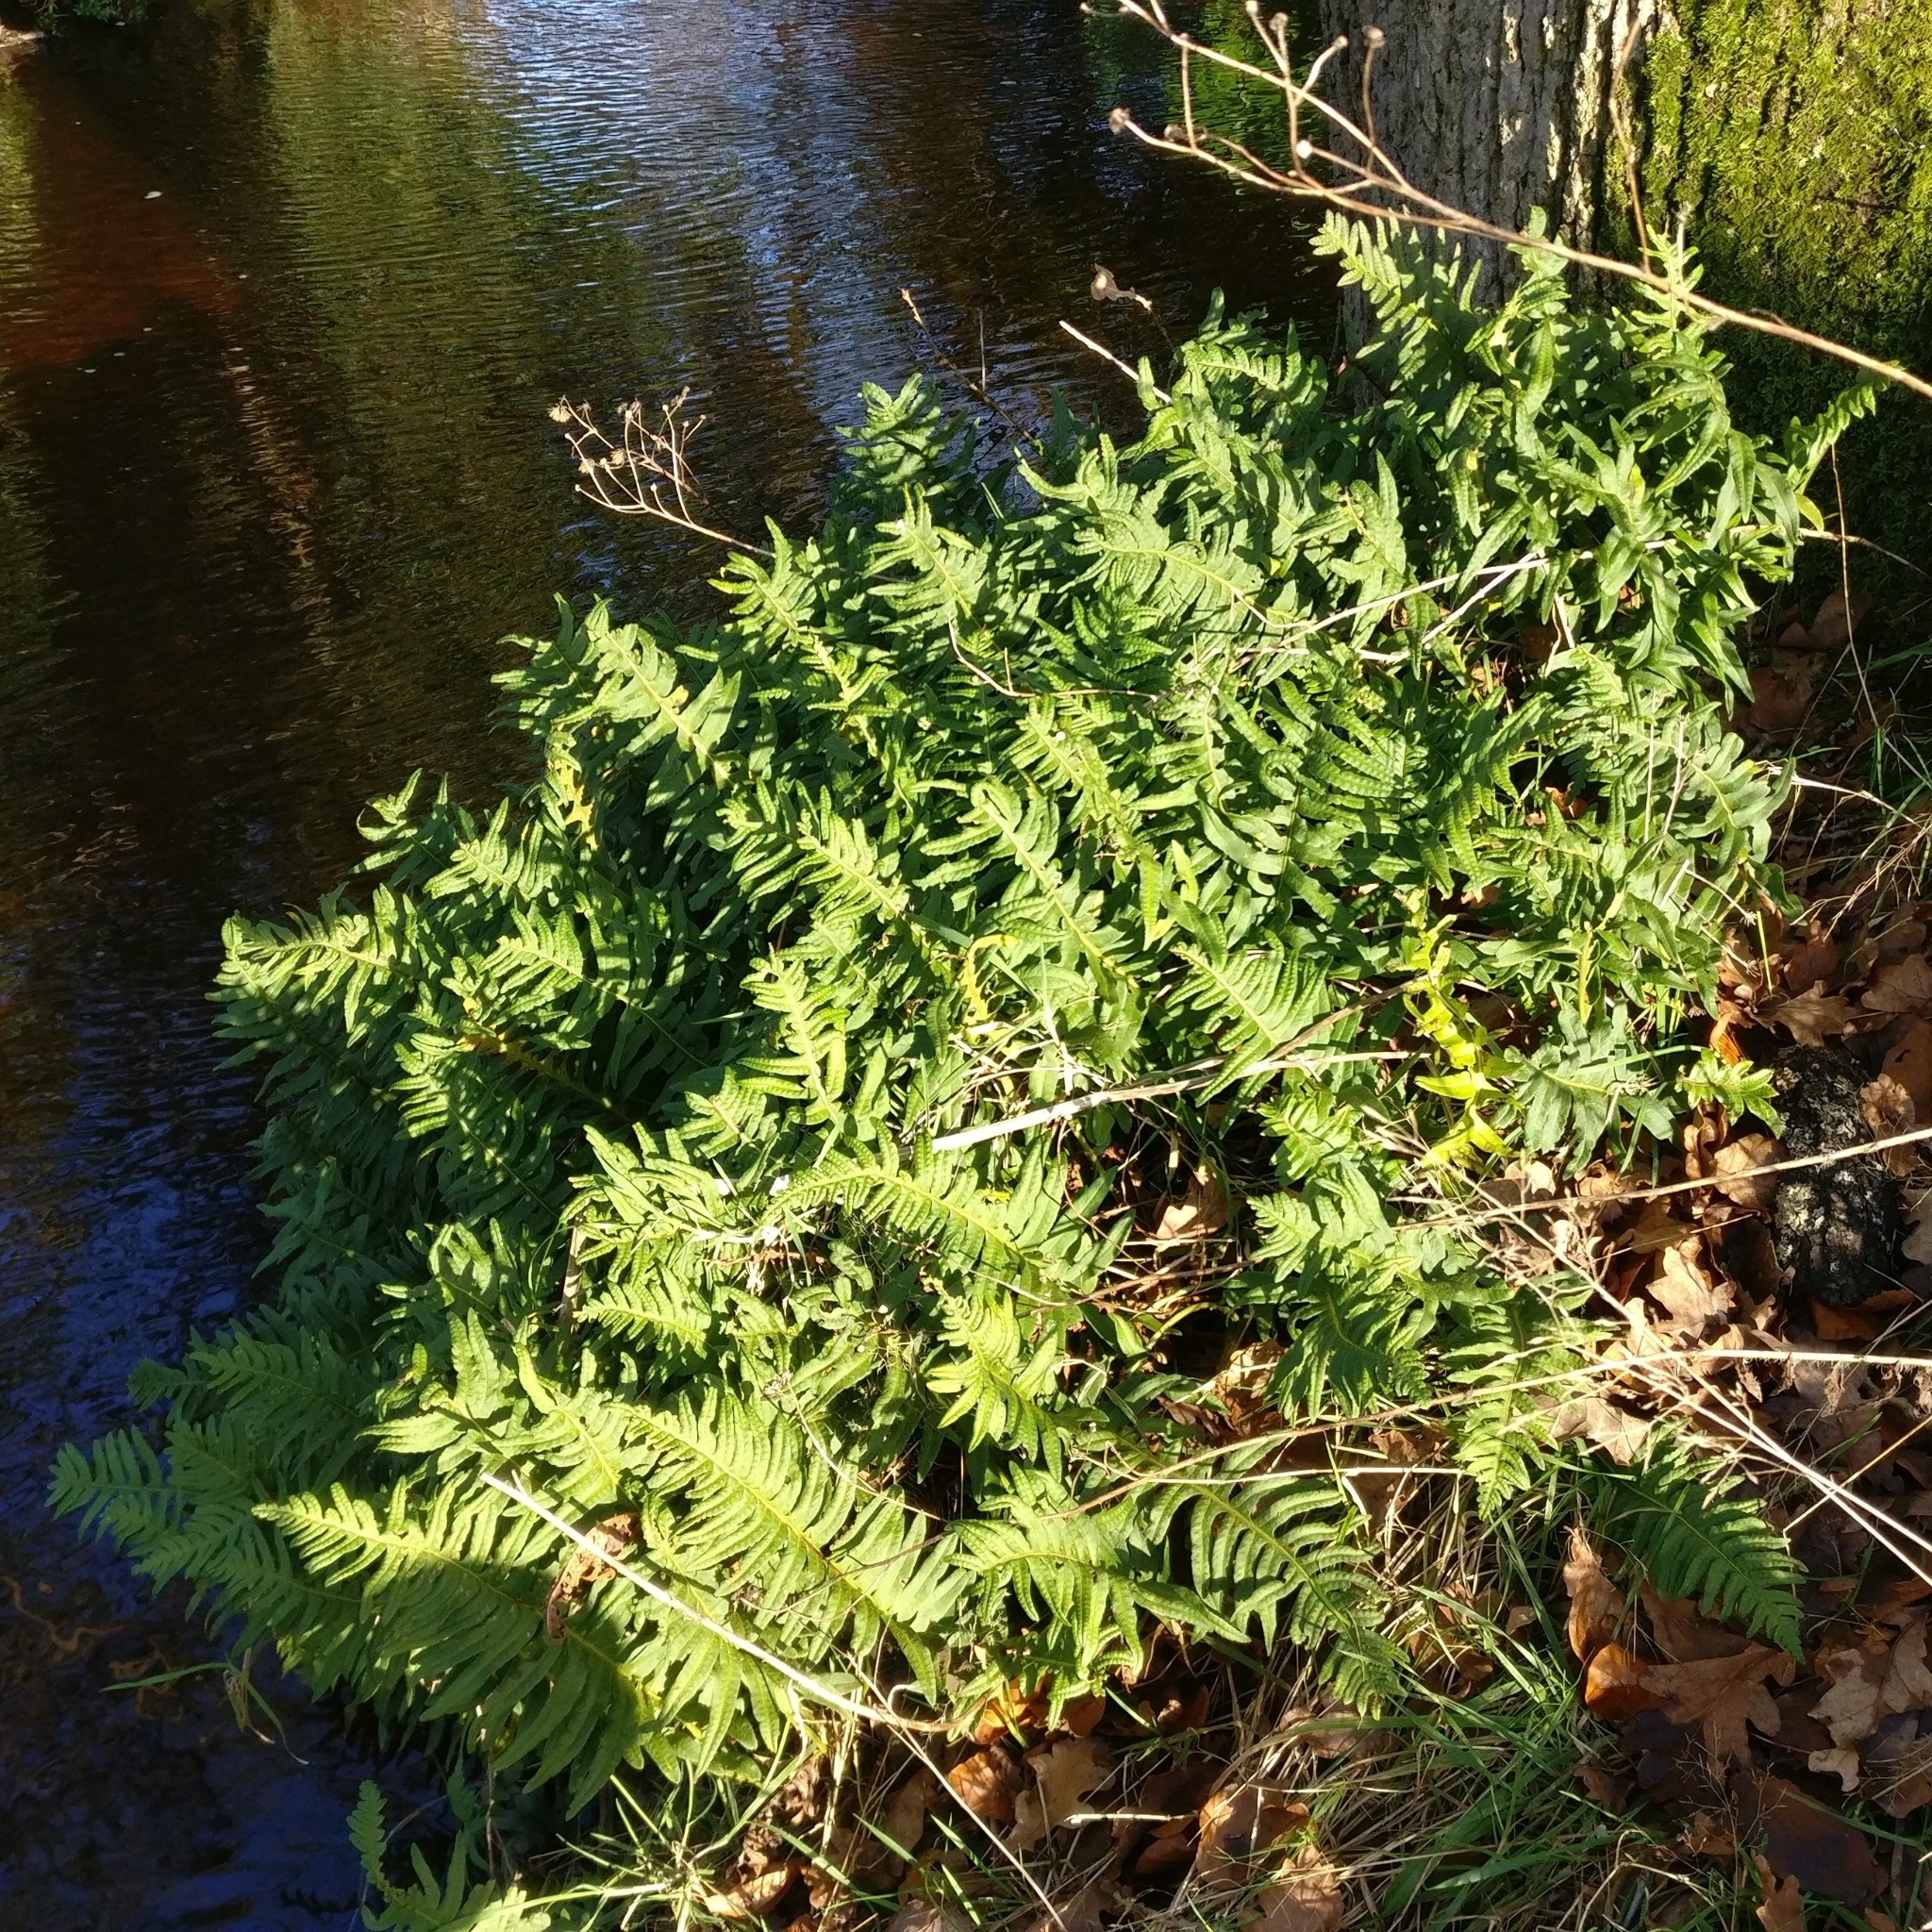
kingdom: Plantae
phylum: Tracheophyta
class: Polypodiopsida
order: Polypodiales
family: Polypodiaceae
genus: Polypodium
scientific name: Polypodium
